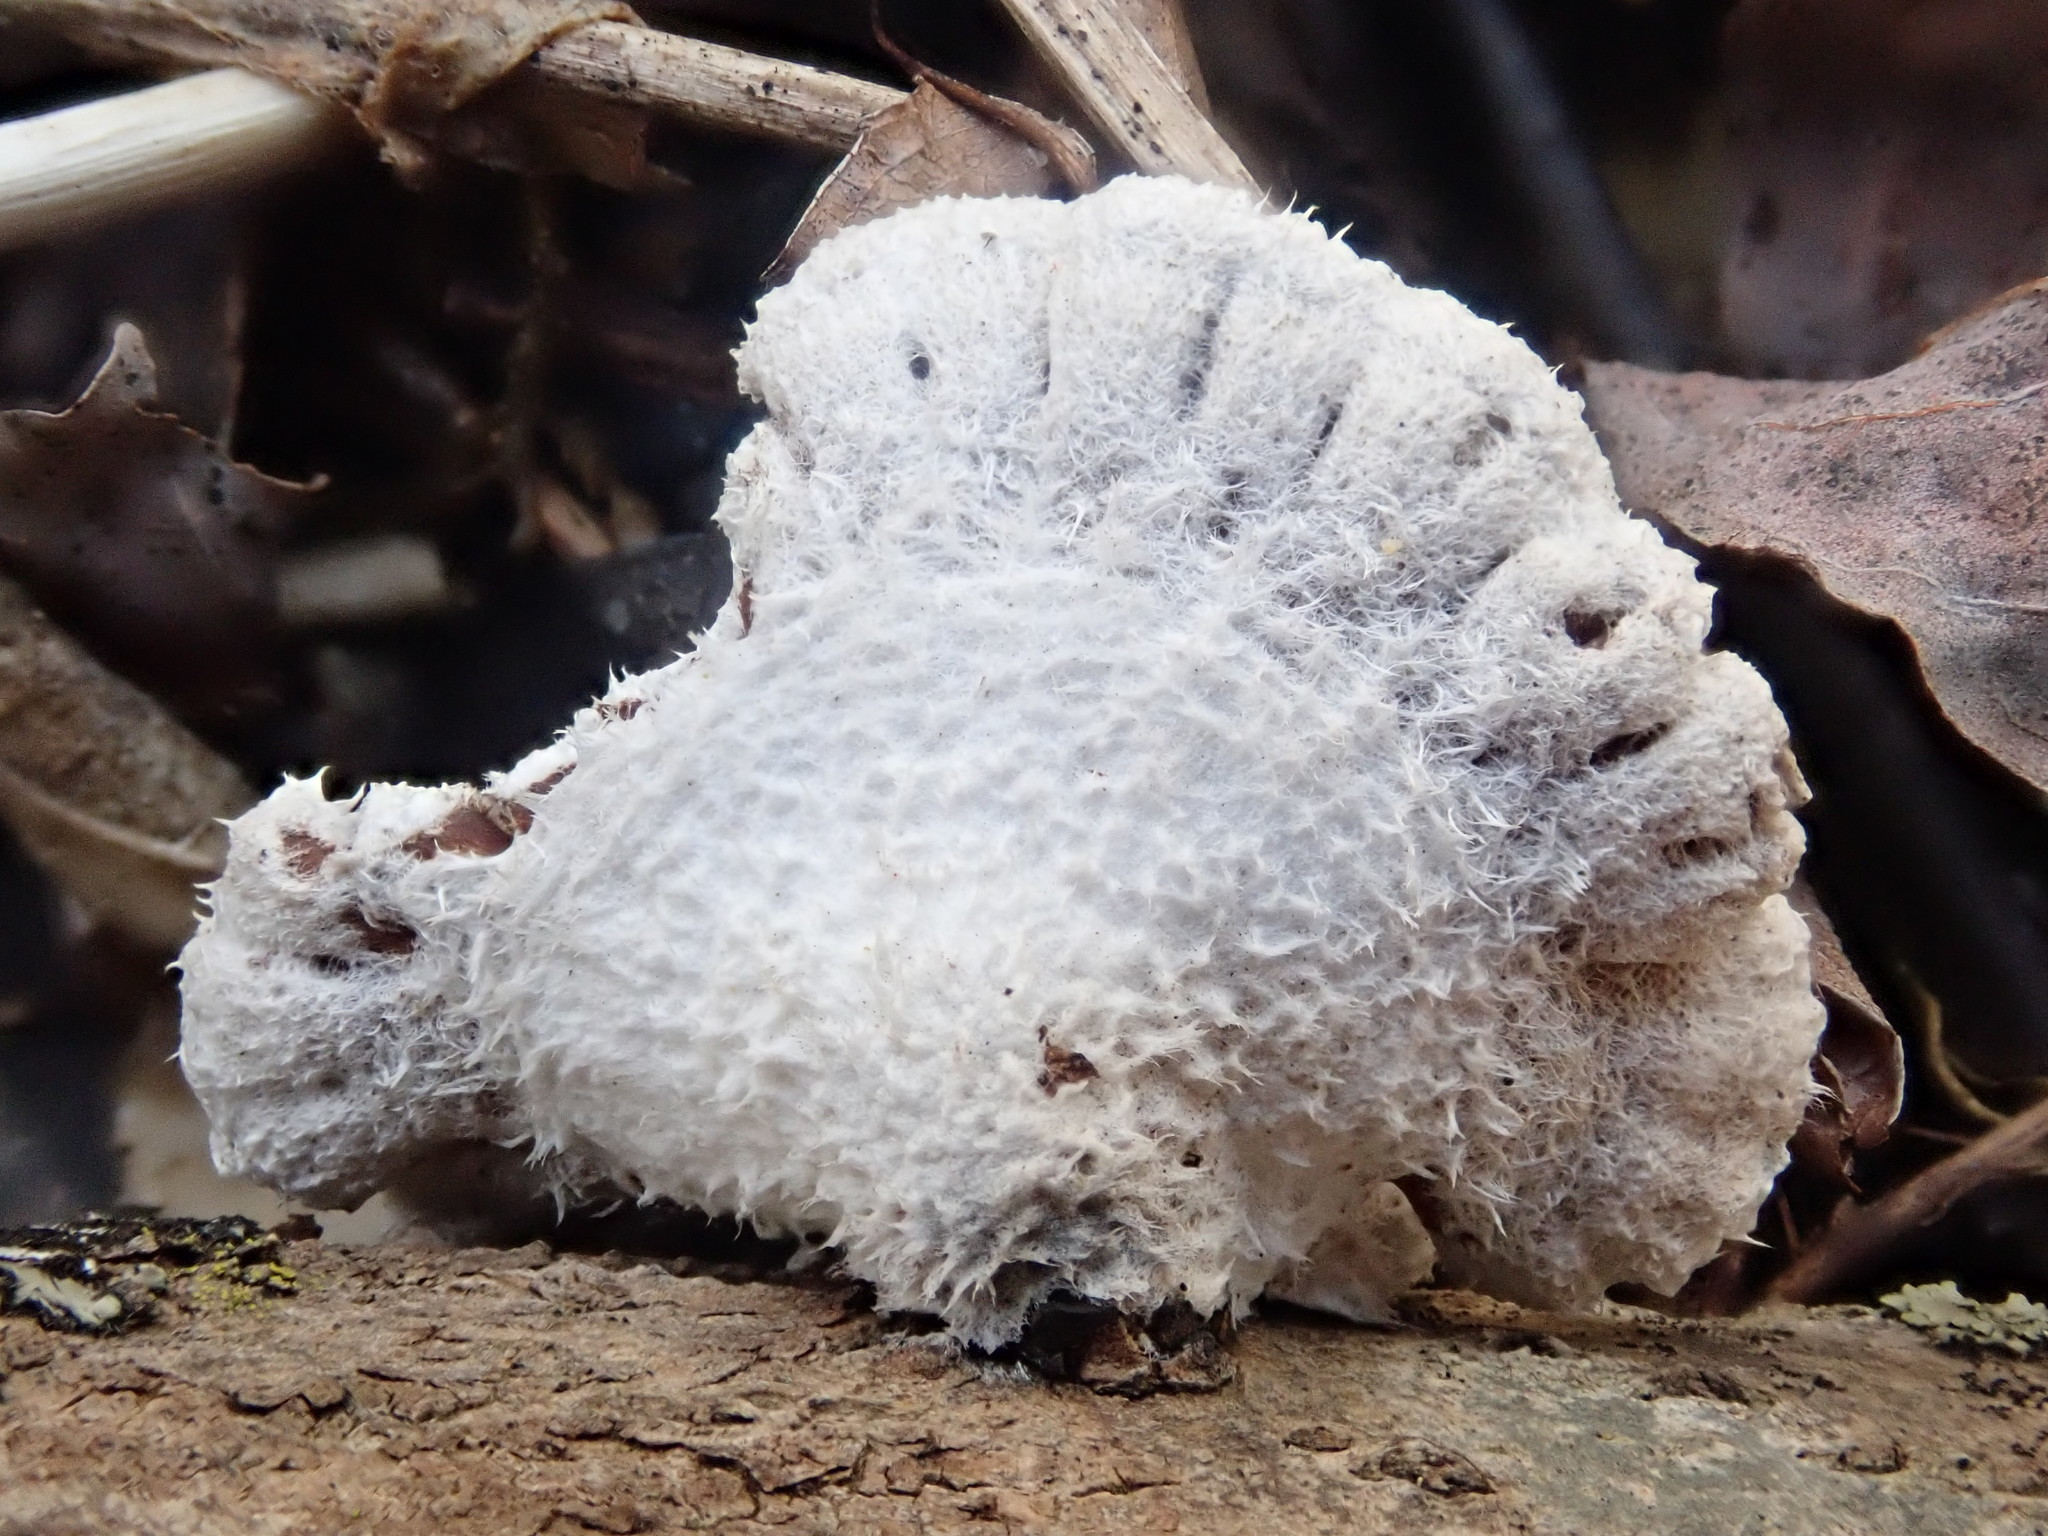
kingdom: Fungi
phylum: Basidiomycota
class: Agaricomycetes
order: Agaricales
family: Schizophyllaceae
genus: Schizophyllum
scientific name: Schizophyllum commune
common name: Common porecrust
